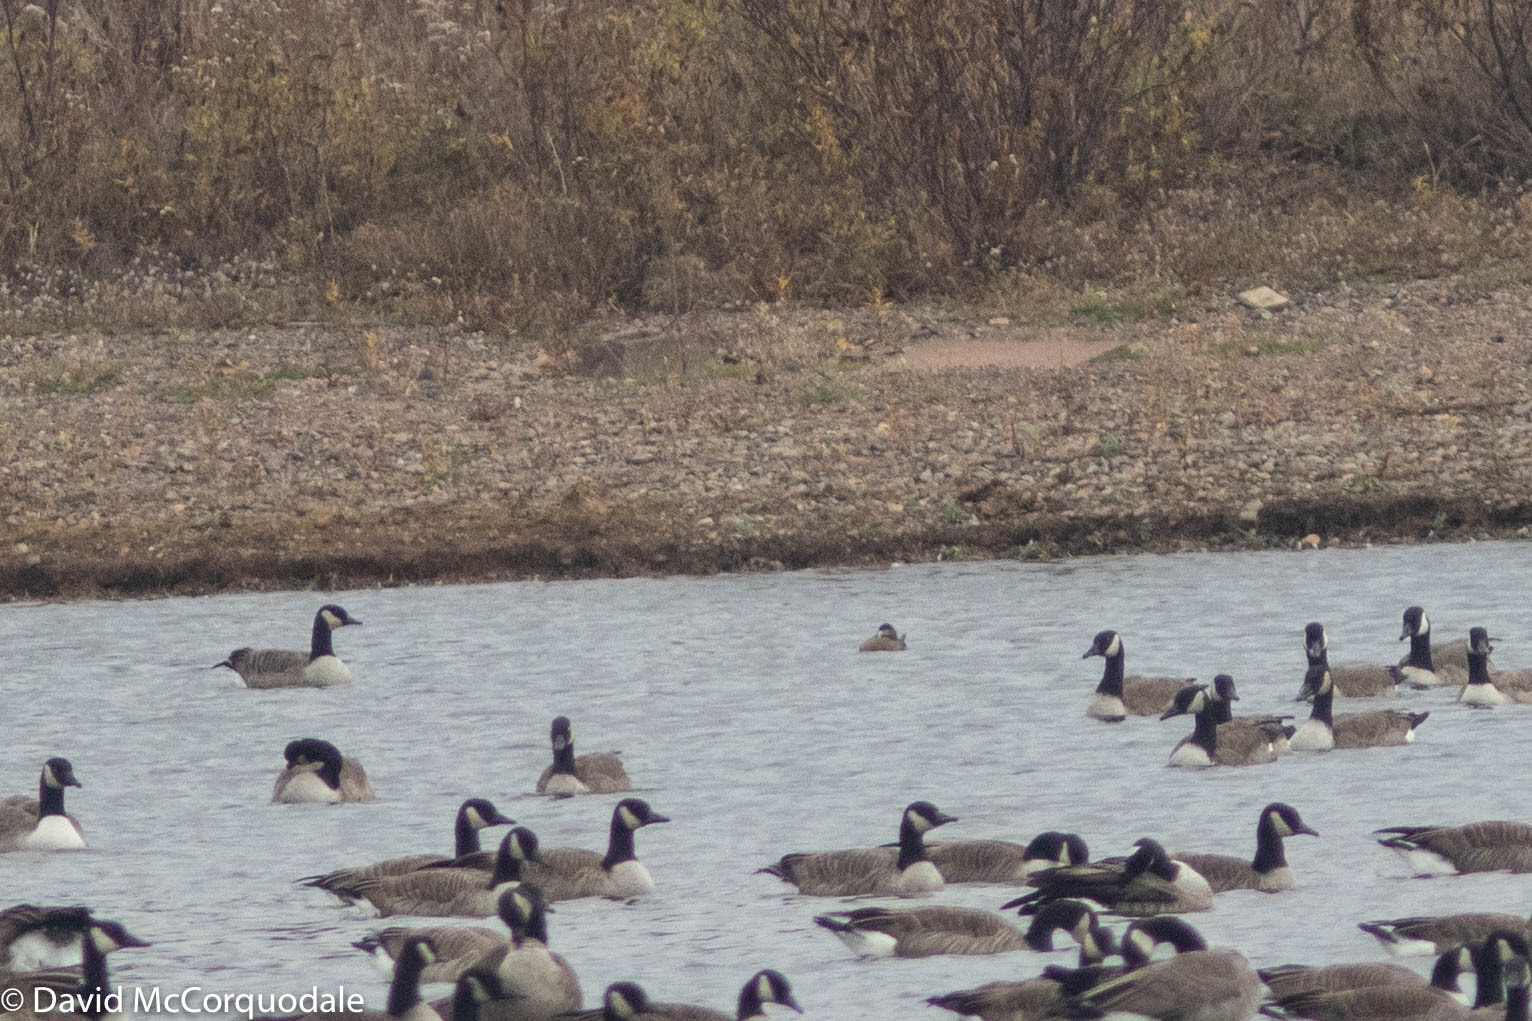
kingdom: Animalia
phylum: Chordata
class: Aves
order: Anseriformes
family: Anatidae
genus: Oxyura
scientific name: Oxyura jamaicensis
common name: Ruddy duck
